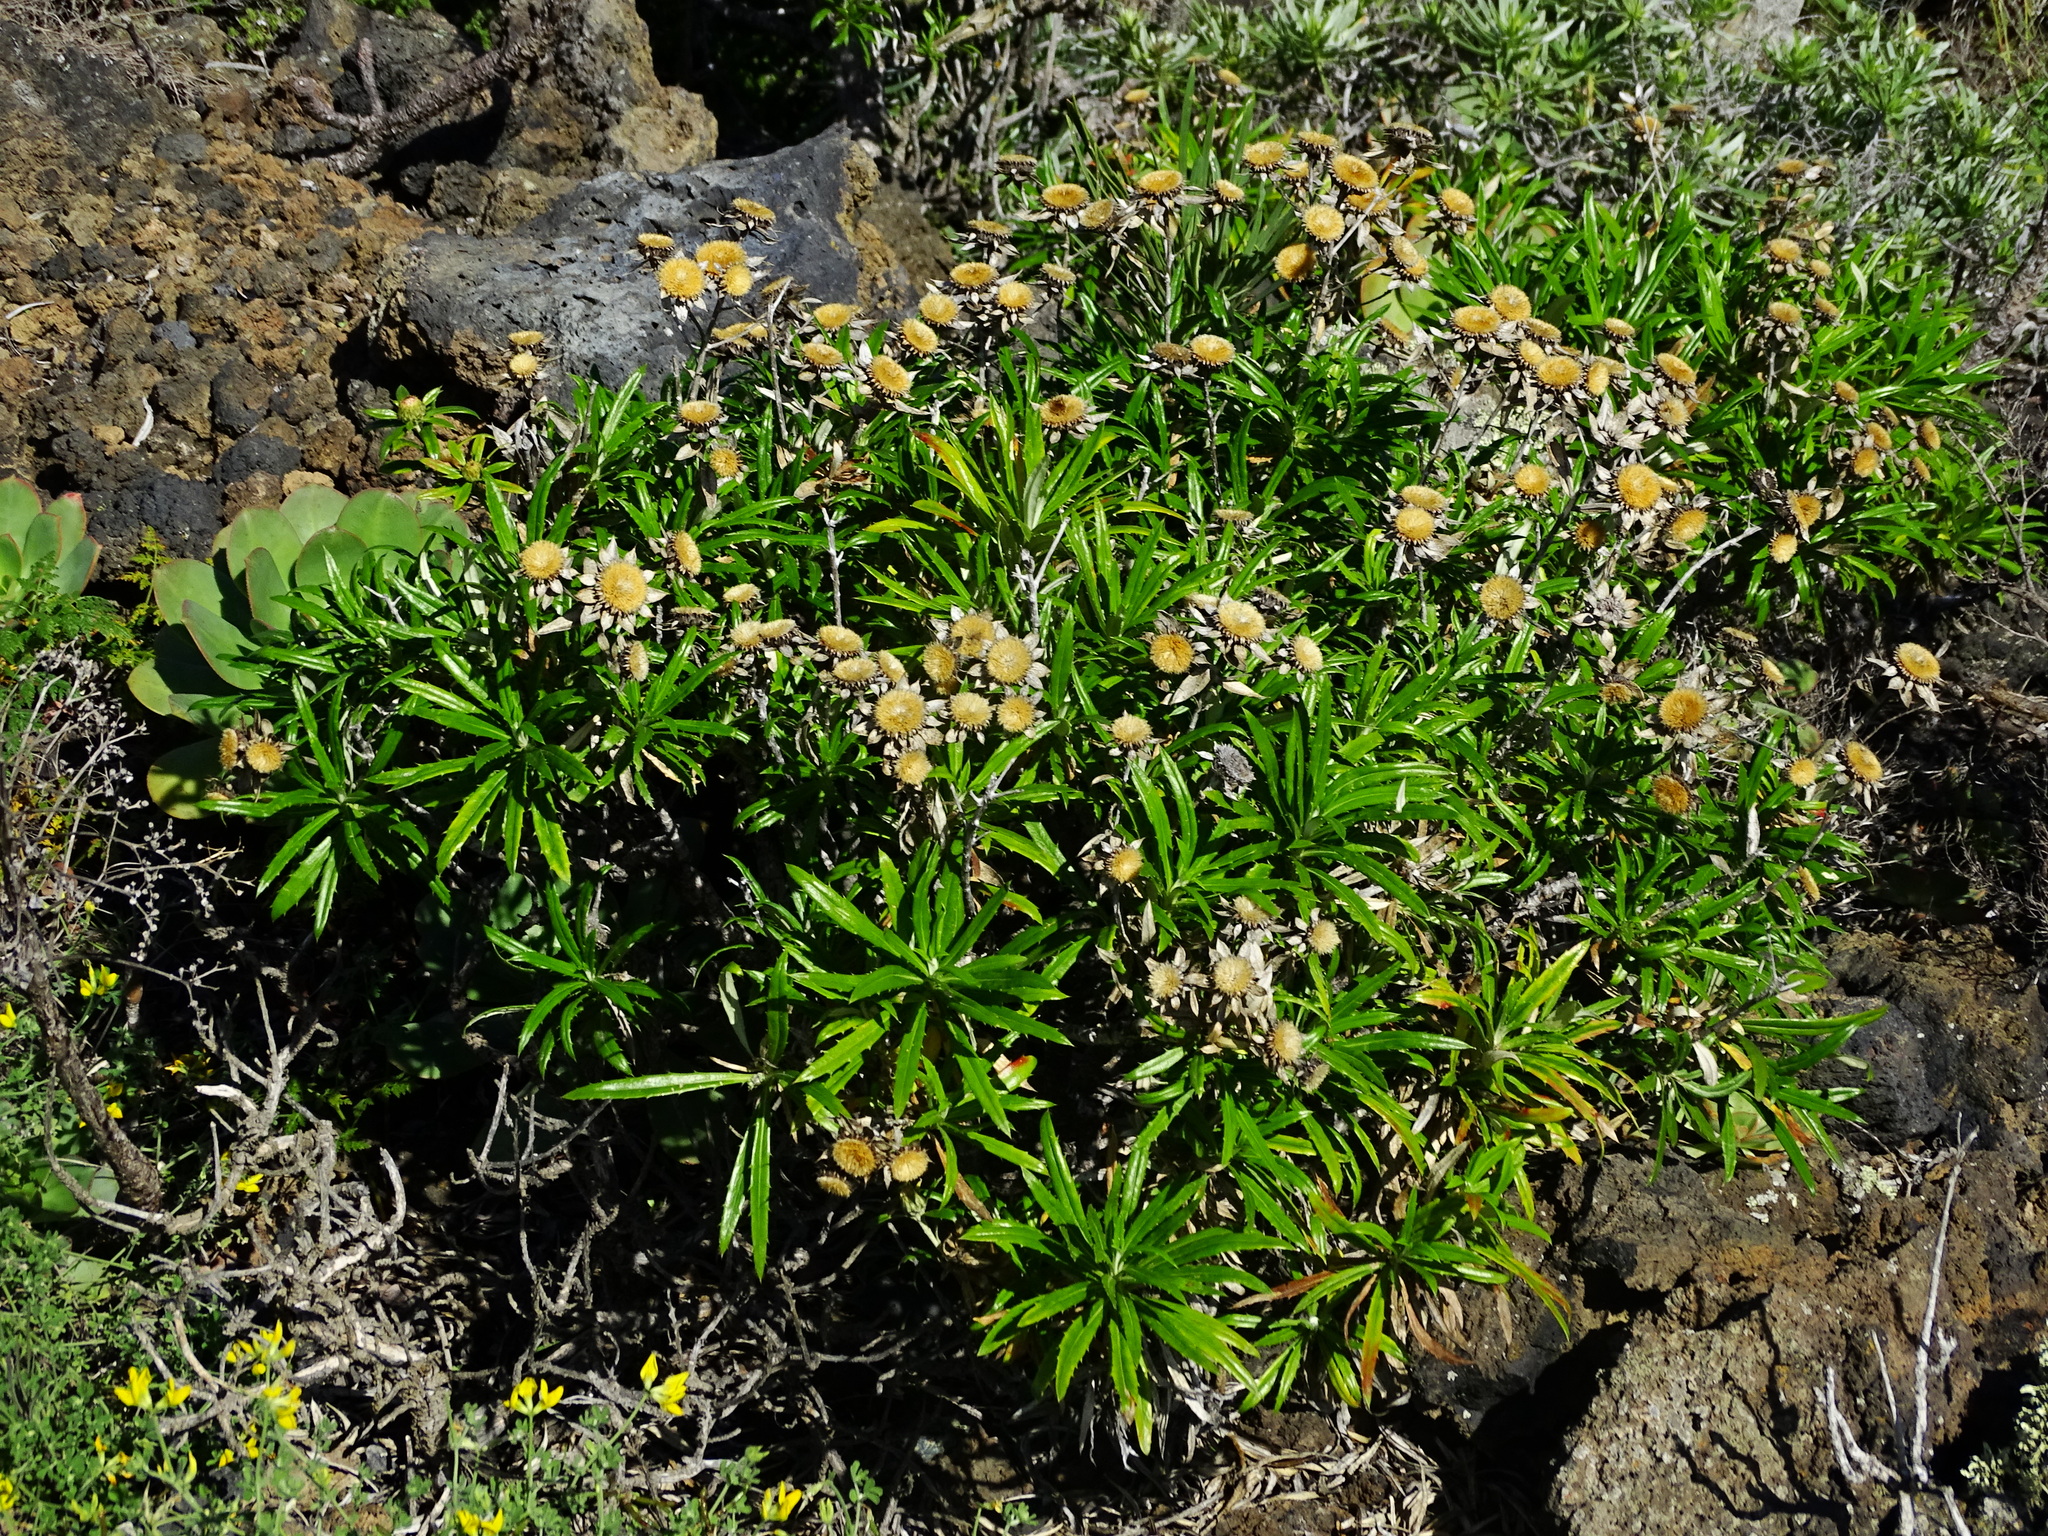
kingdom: Plantae
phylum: Tracheophyta
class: Magnoliopsida
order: Asterales
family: Asteraceae
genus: Carlina
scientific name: Carlina salicifolia
